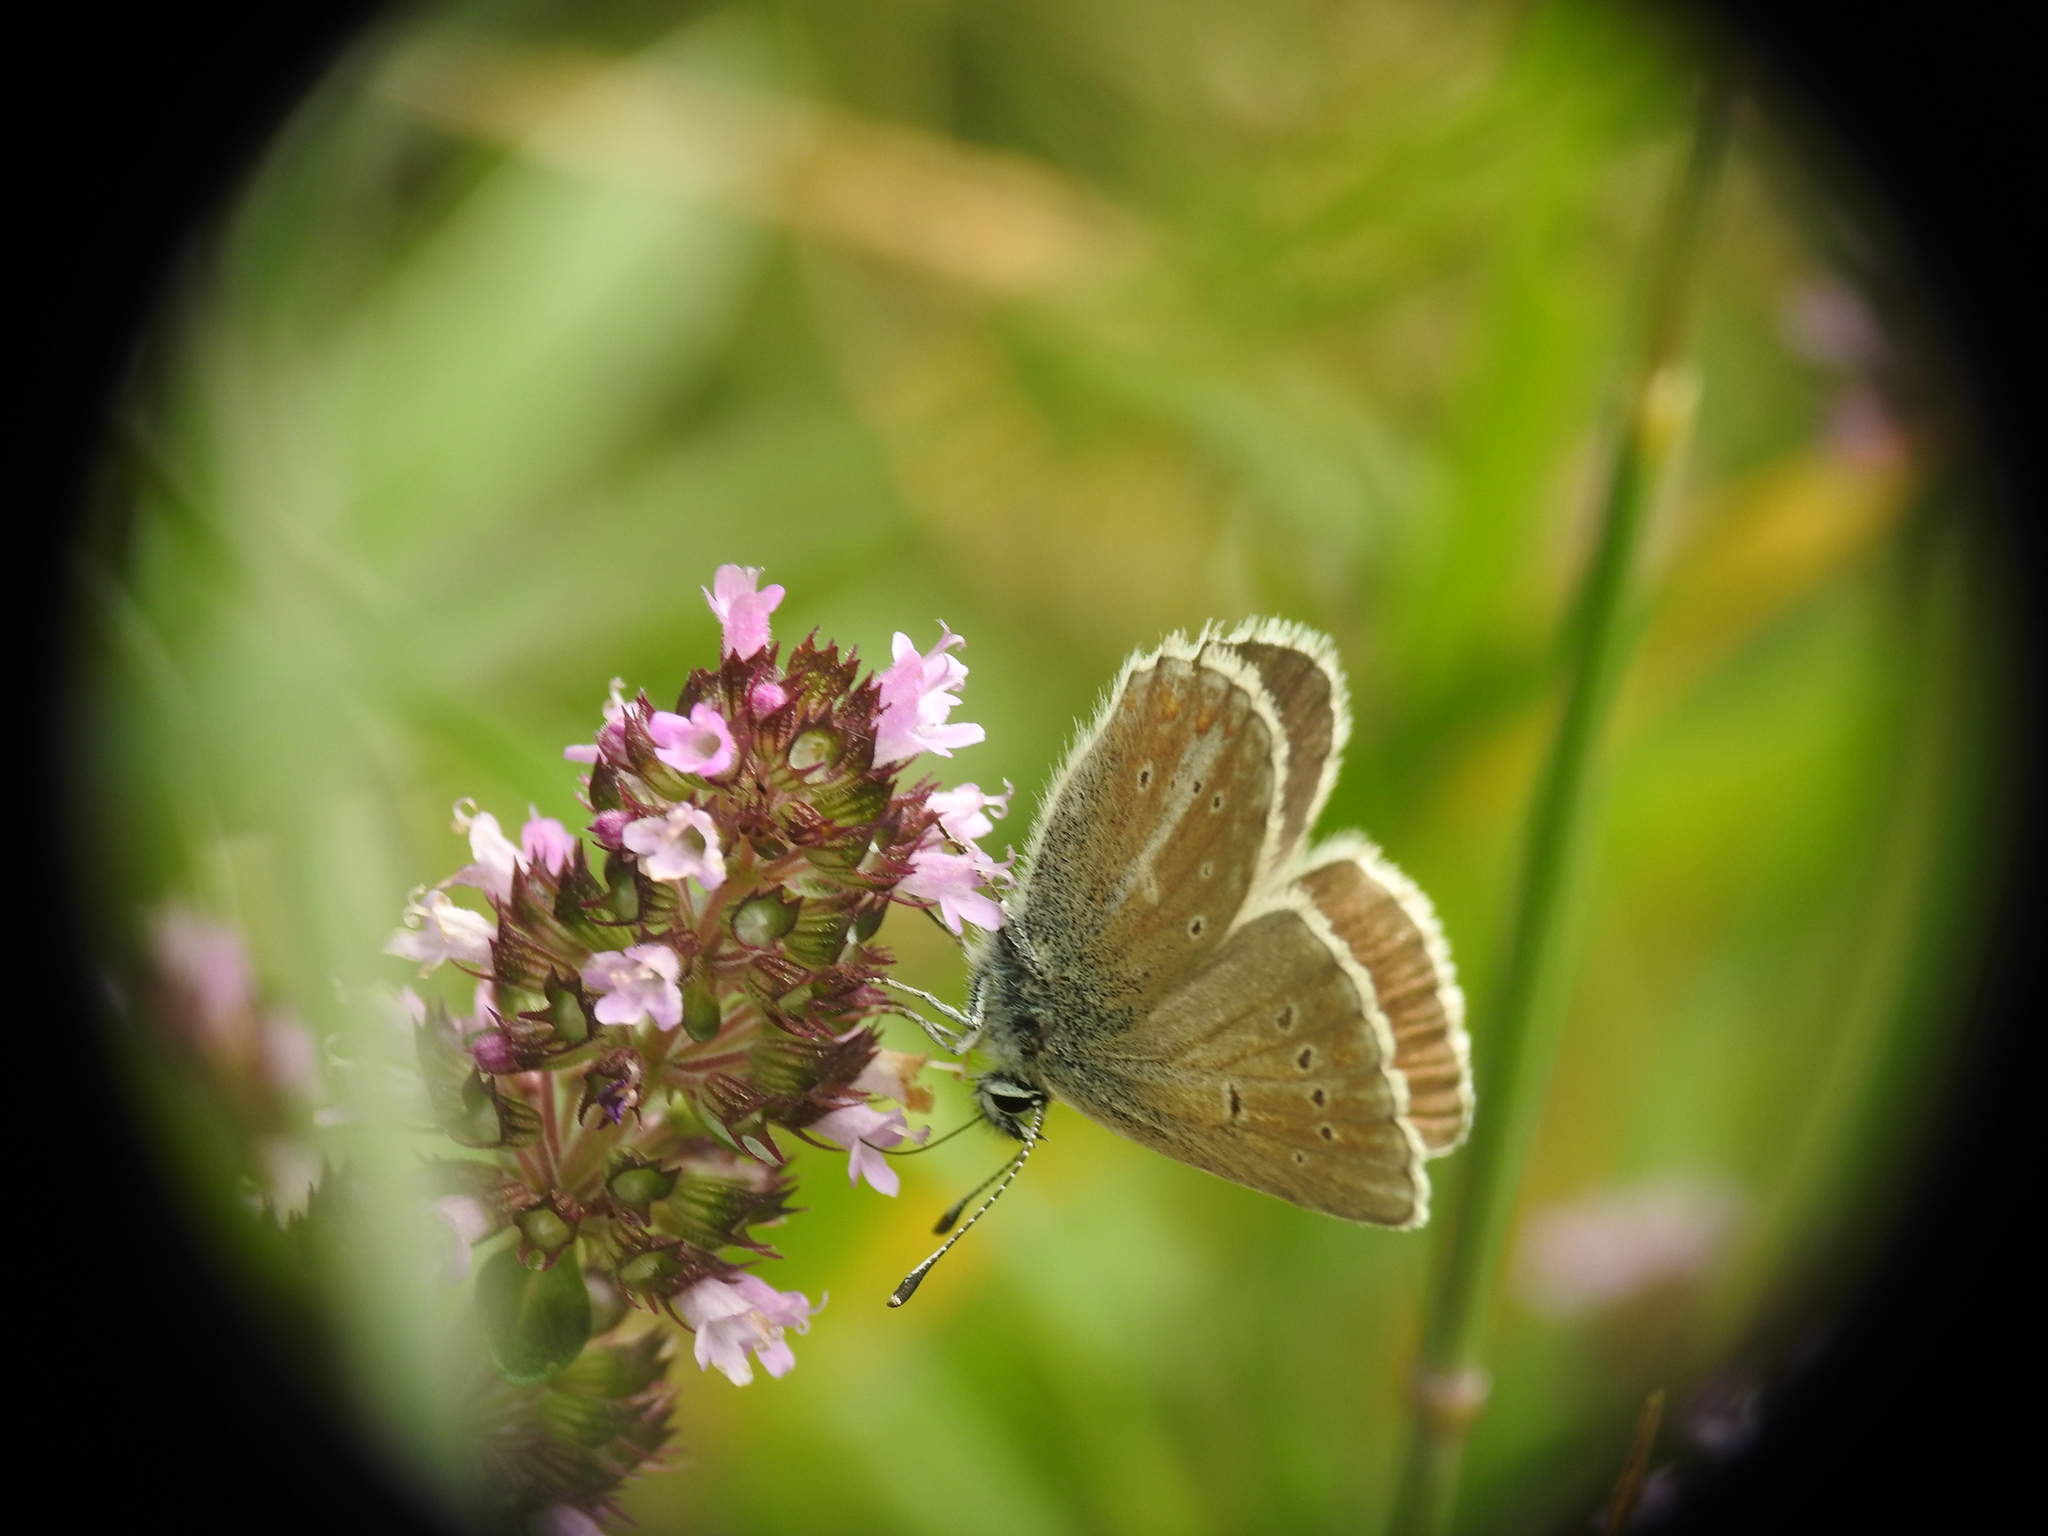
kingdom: Animalia
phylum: Arthropoda
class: Insecta
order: Lepidoptera
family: Lycaenidae
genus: Pseudoaricia
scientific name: Pseudoaricia nicias
